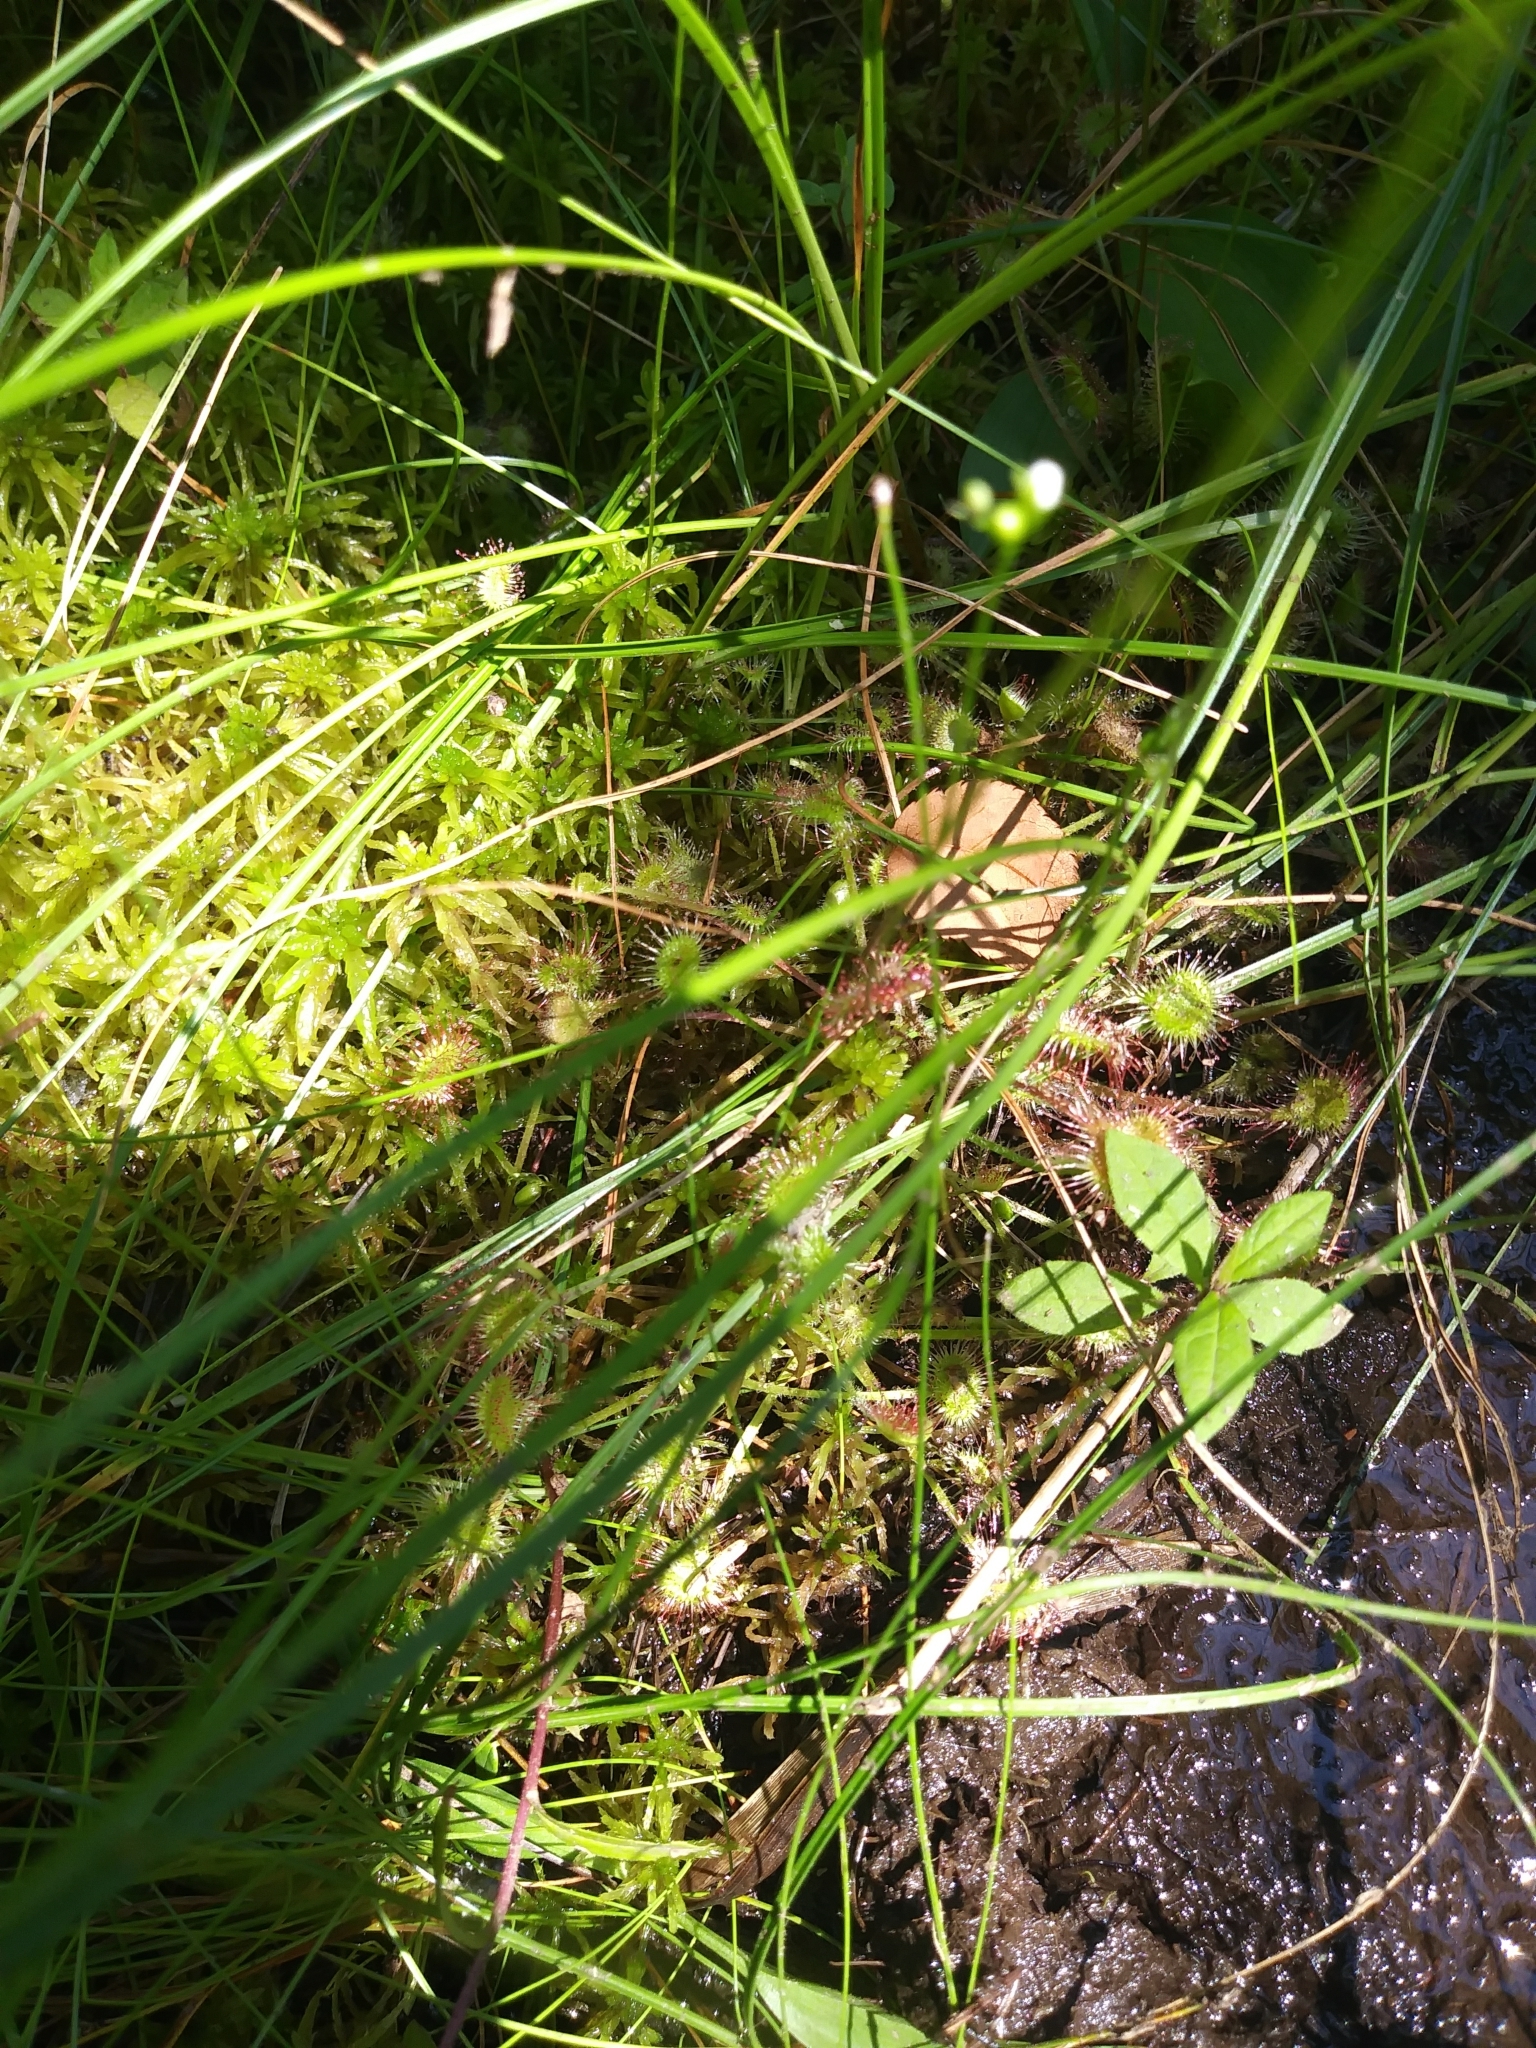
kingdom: Plantae
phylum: Tracheophyta
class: Magnoliopsida
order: Caryophyllales
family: Droseraceae
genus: Drosera
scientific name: Drosera rotundifolia
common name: Round-leaved sundew
